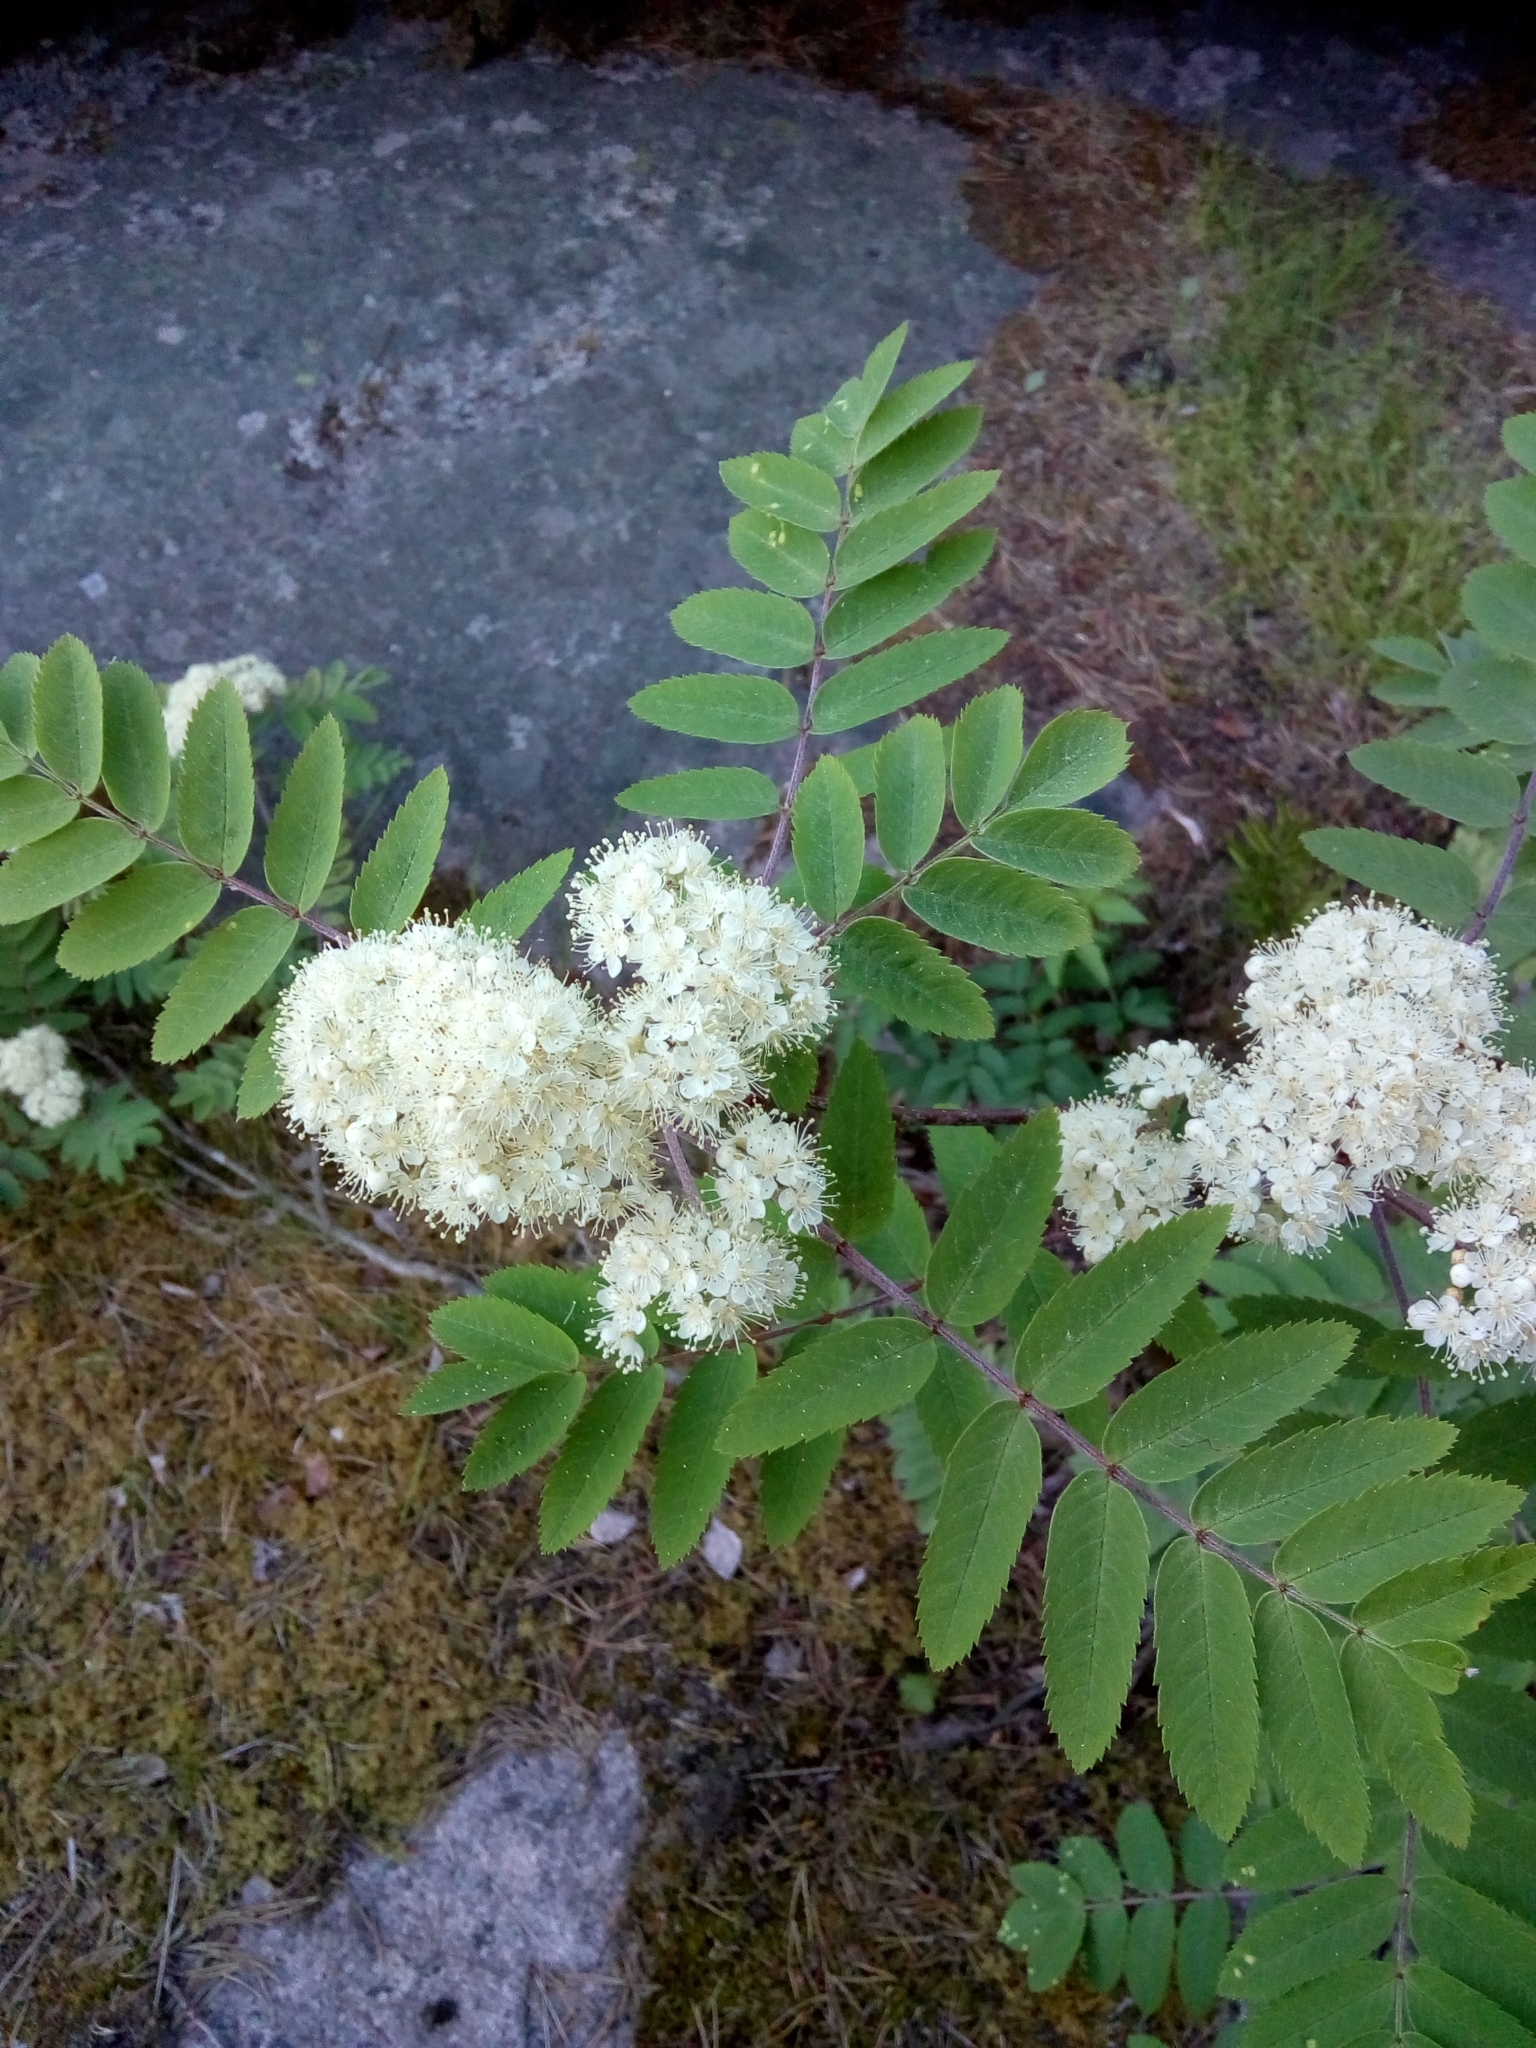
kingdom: Plantae
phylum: Tracheophyta
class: Magnoliopsida
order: Rosales
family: Rosaceae
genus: Sorbus
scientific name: Sorbus aucuparia
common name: Rowan
